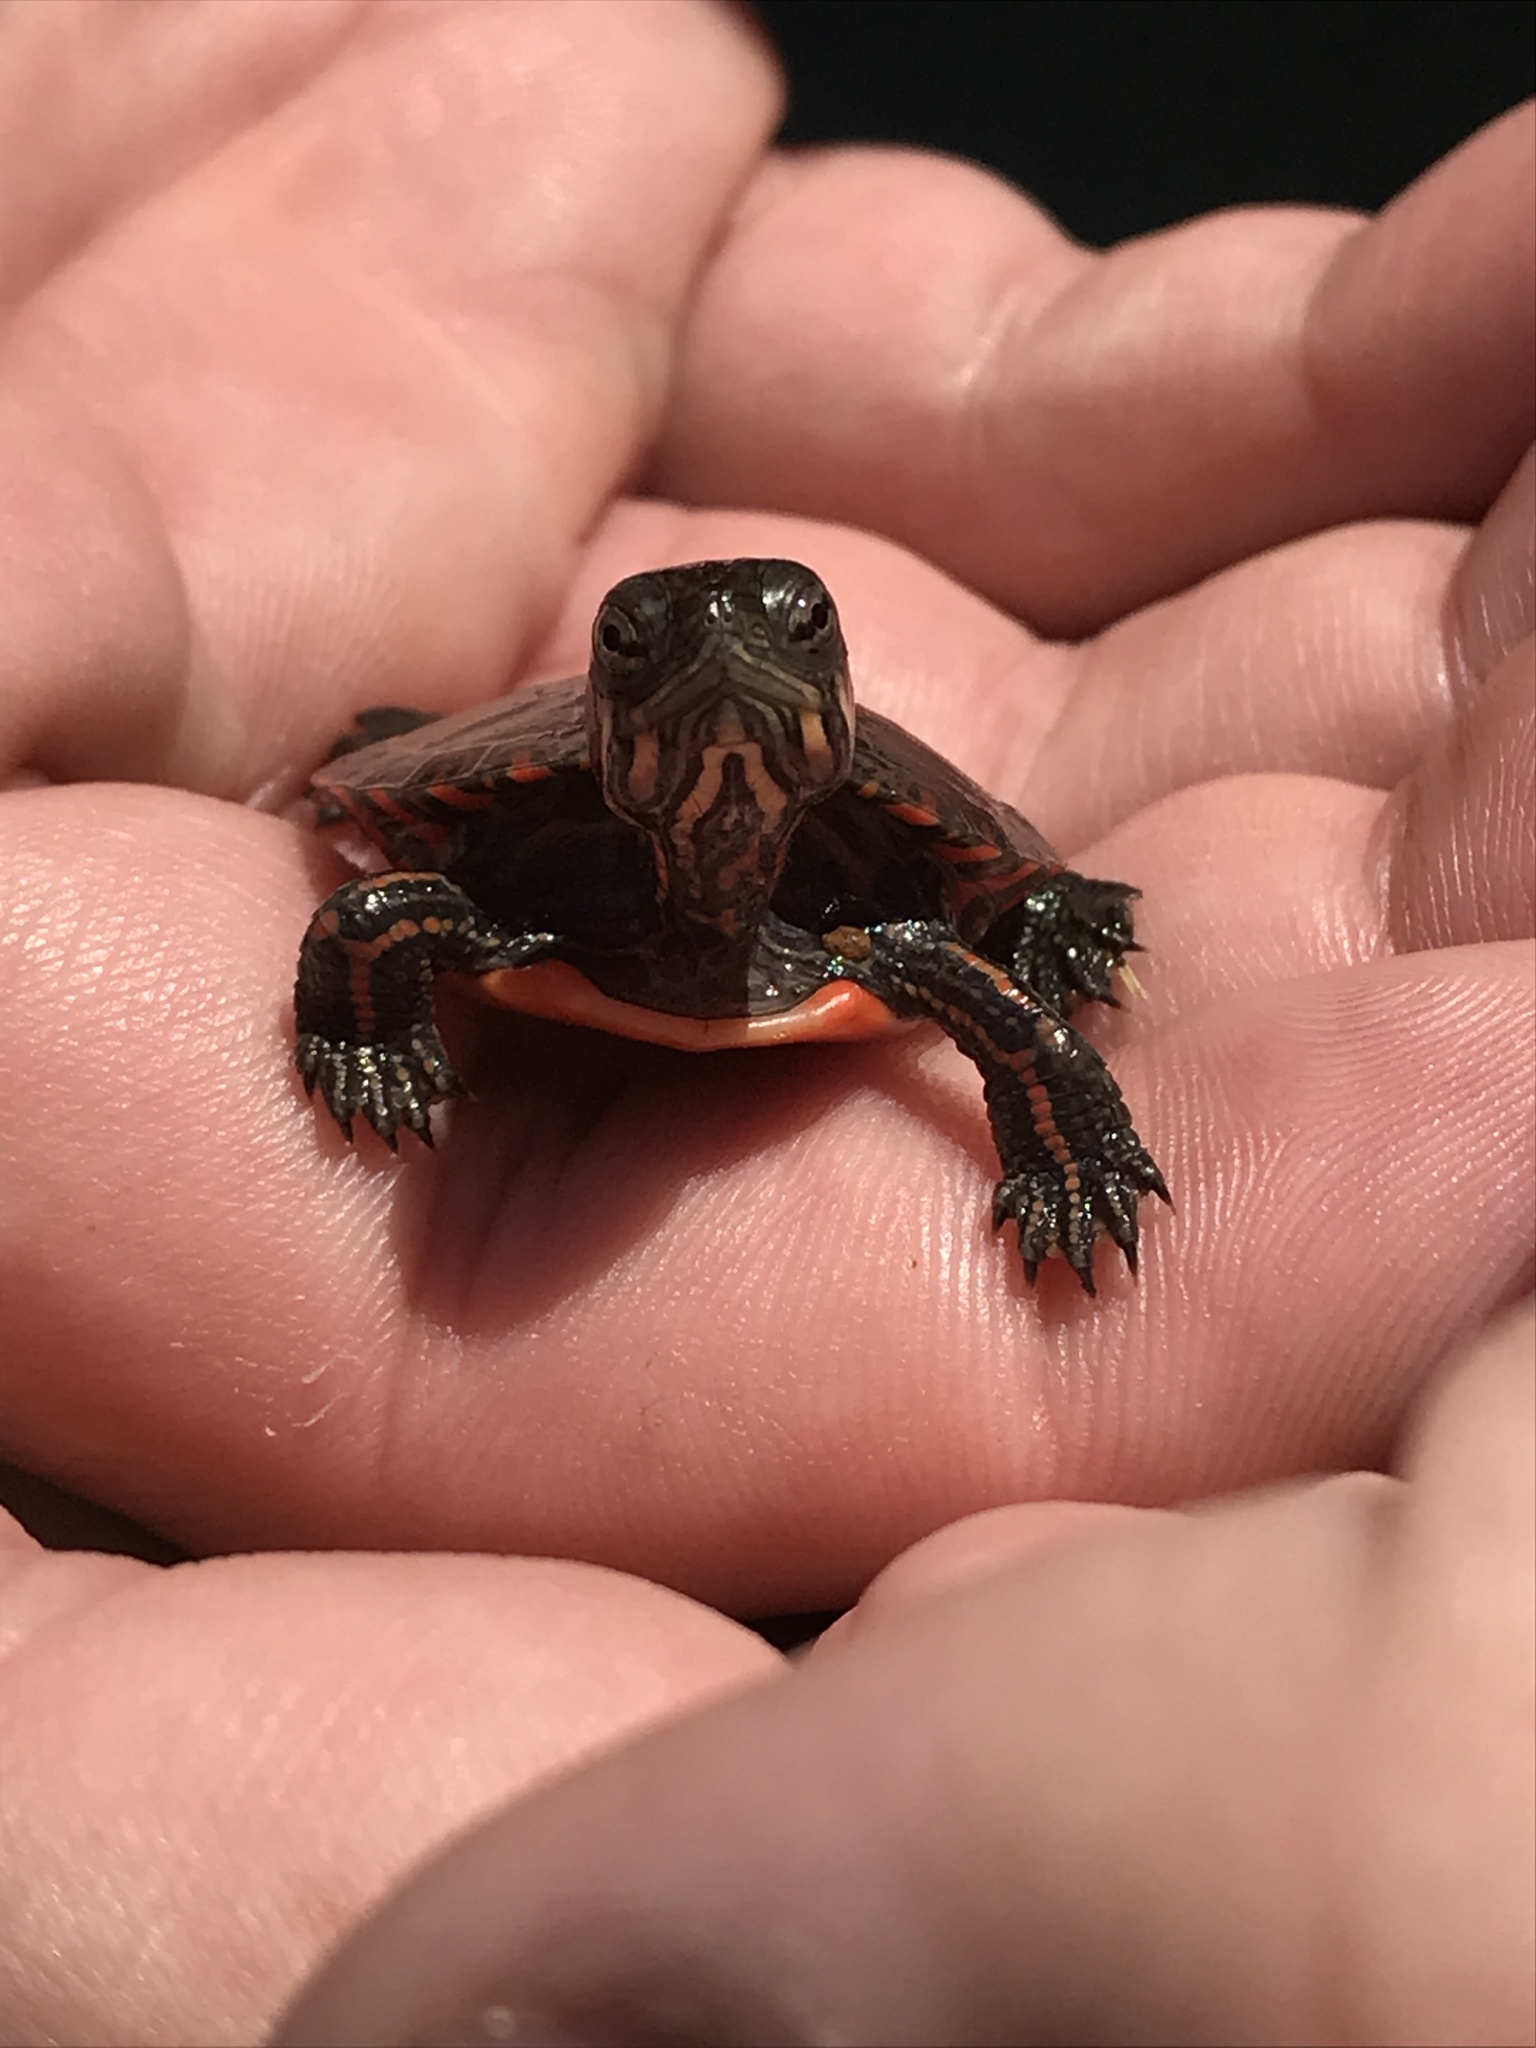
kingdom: Animalia
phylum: Chordata
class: Testudines
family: Emydidae
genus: Chrysemys
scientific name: Chrysemys picta
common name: Painted turtle
